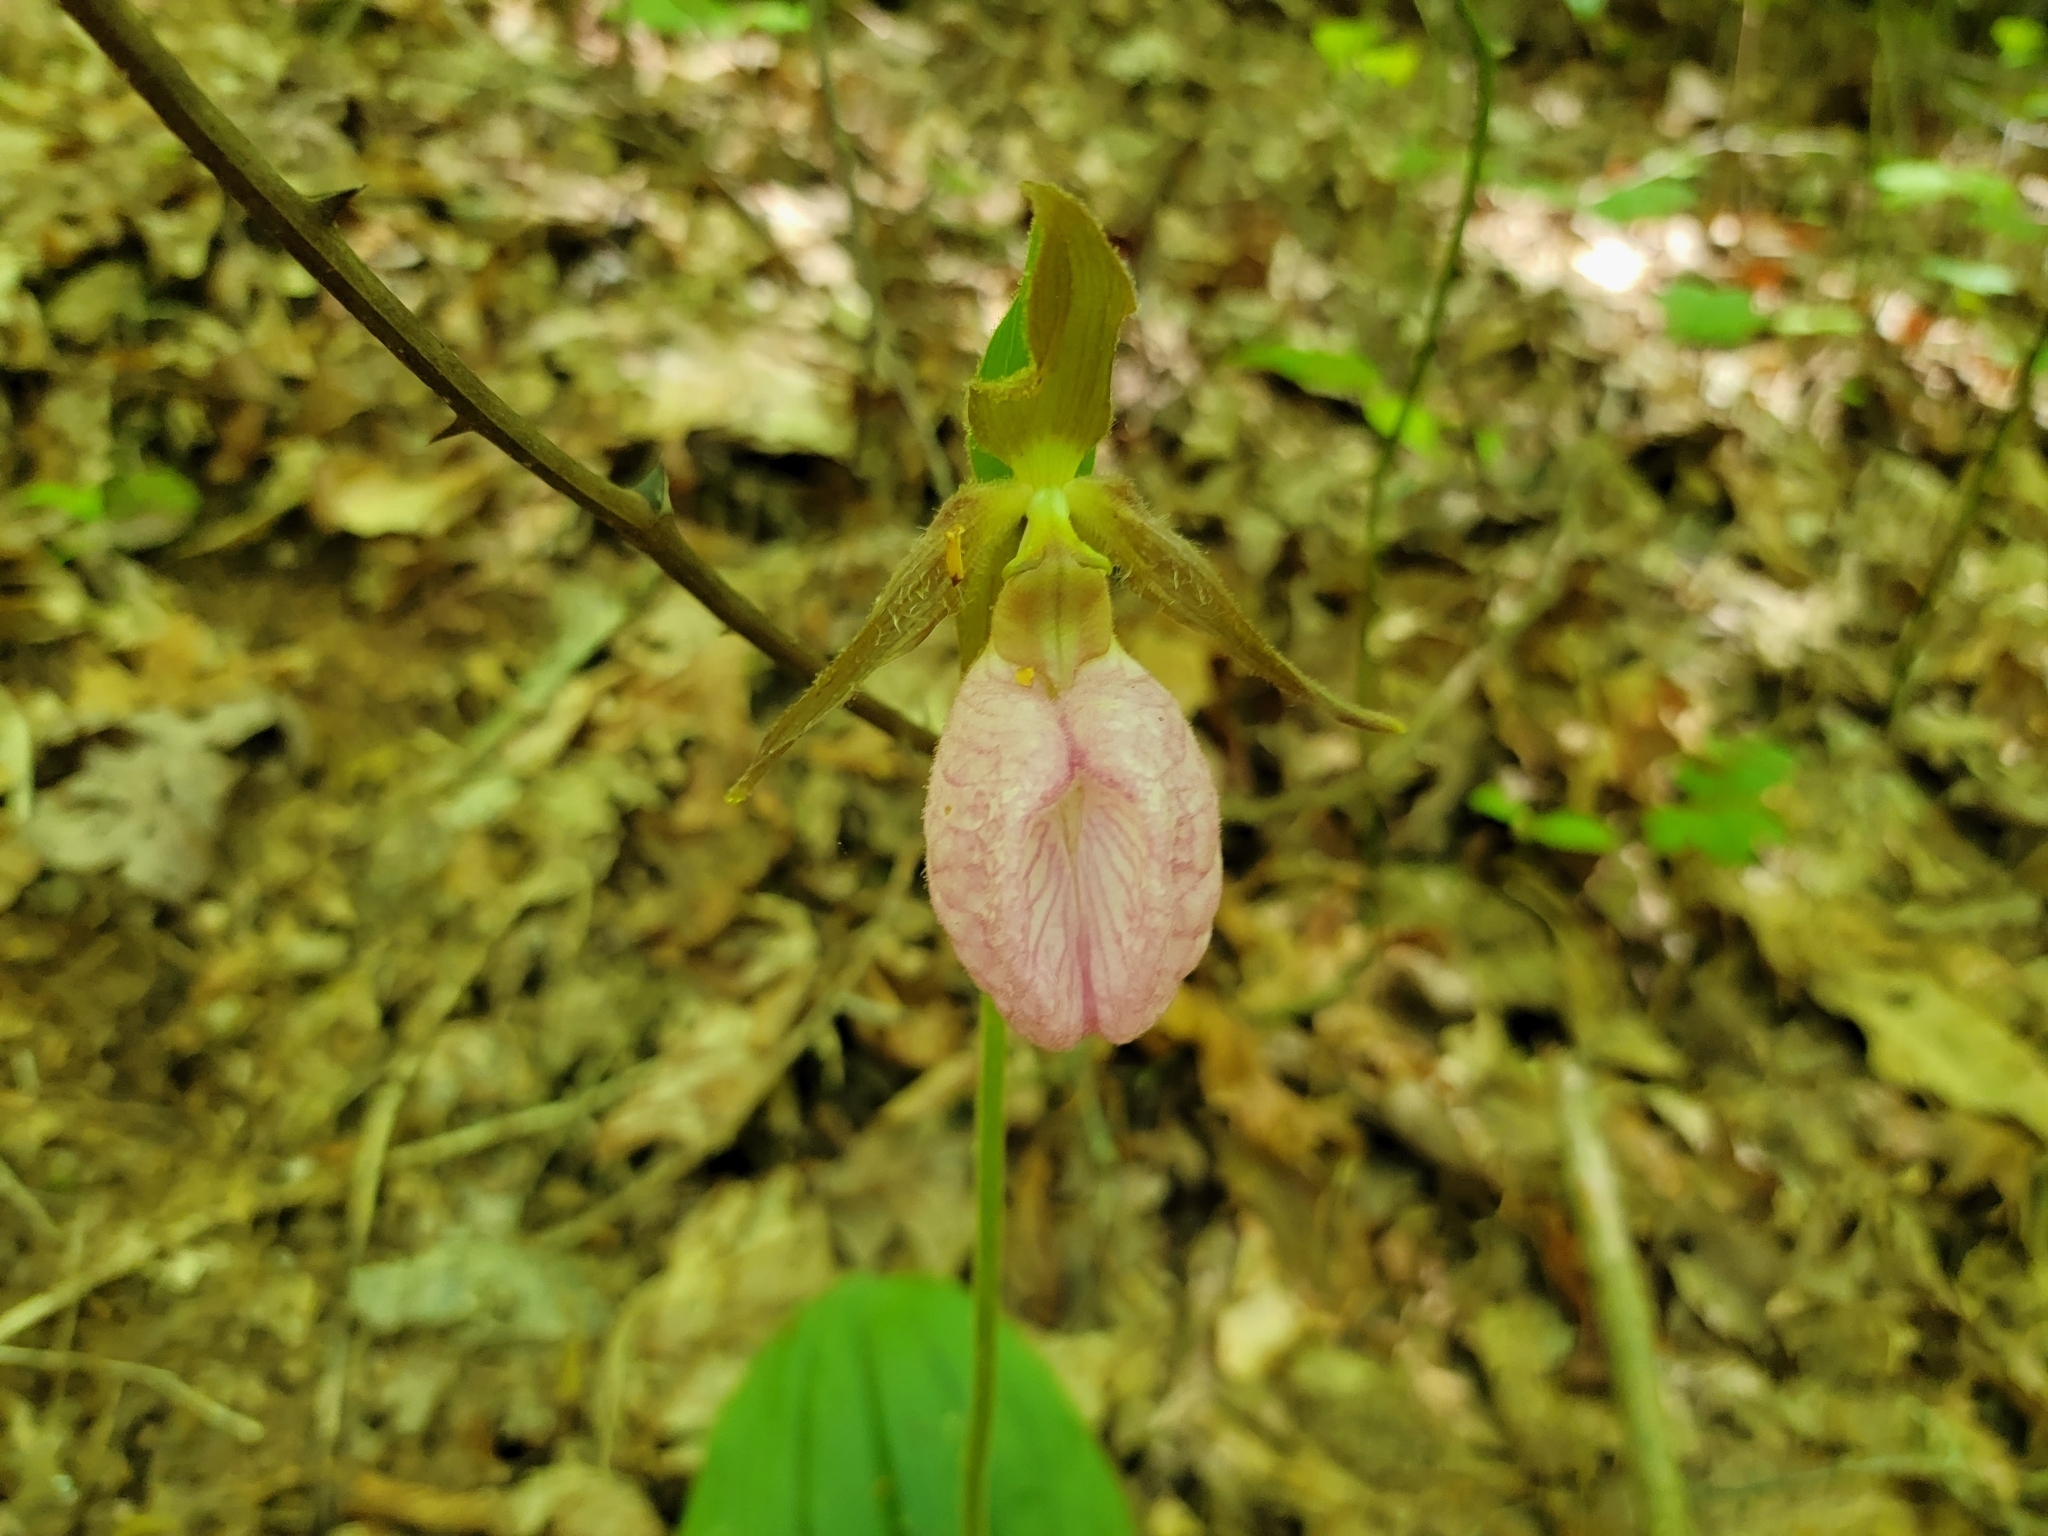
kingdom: Plantae
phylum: Tracheophyta
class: Liliopsida
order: Asparagales
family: Orchidaceae
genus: Cypripedium
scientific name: Cypripedium acaule
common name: Pink lady's-slipper
